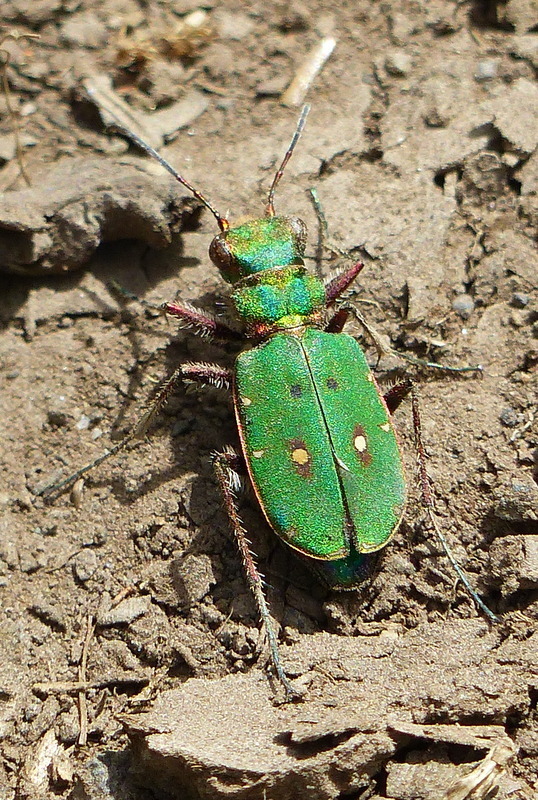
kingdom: Animalia
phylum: Arthropoda
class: Insecta
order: Coleoptera
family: Carabidae
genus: Cicindela
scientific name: Cicindela campestris
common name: Common tiger beetle
